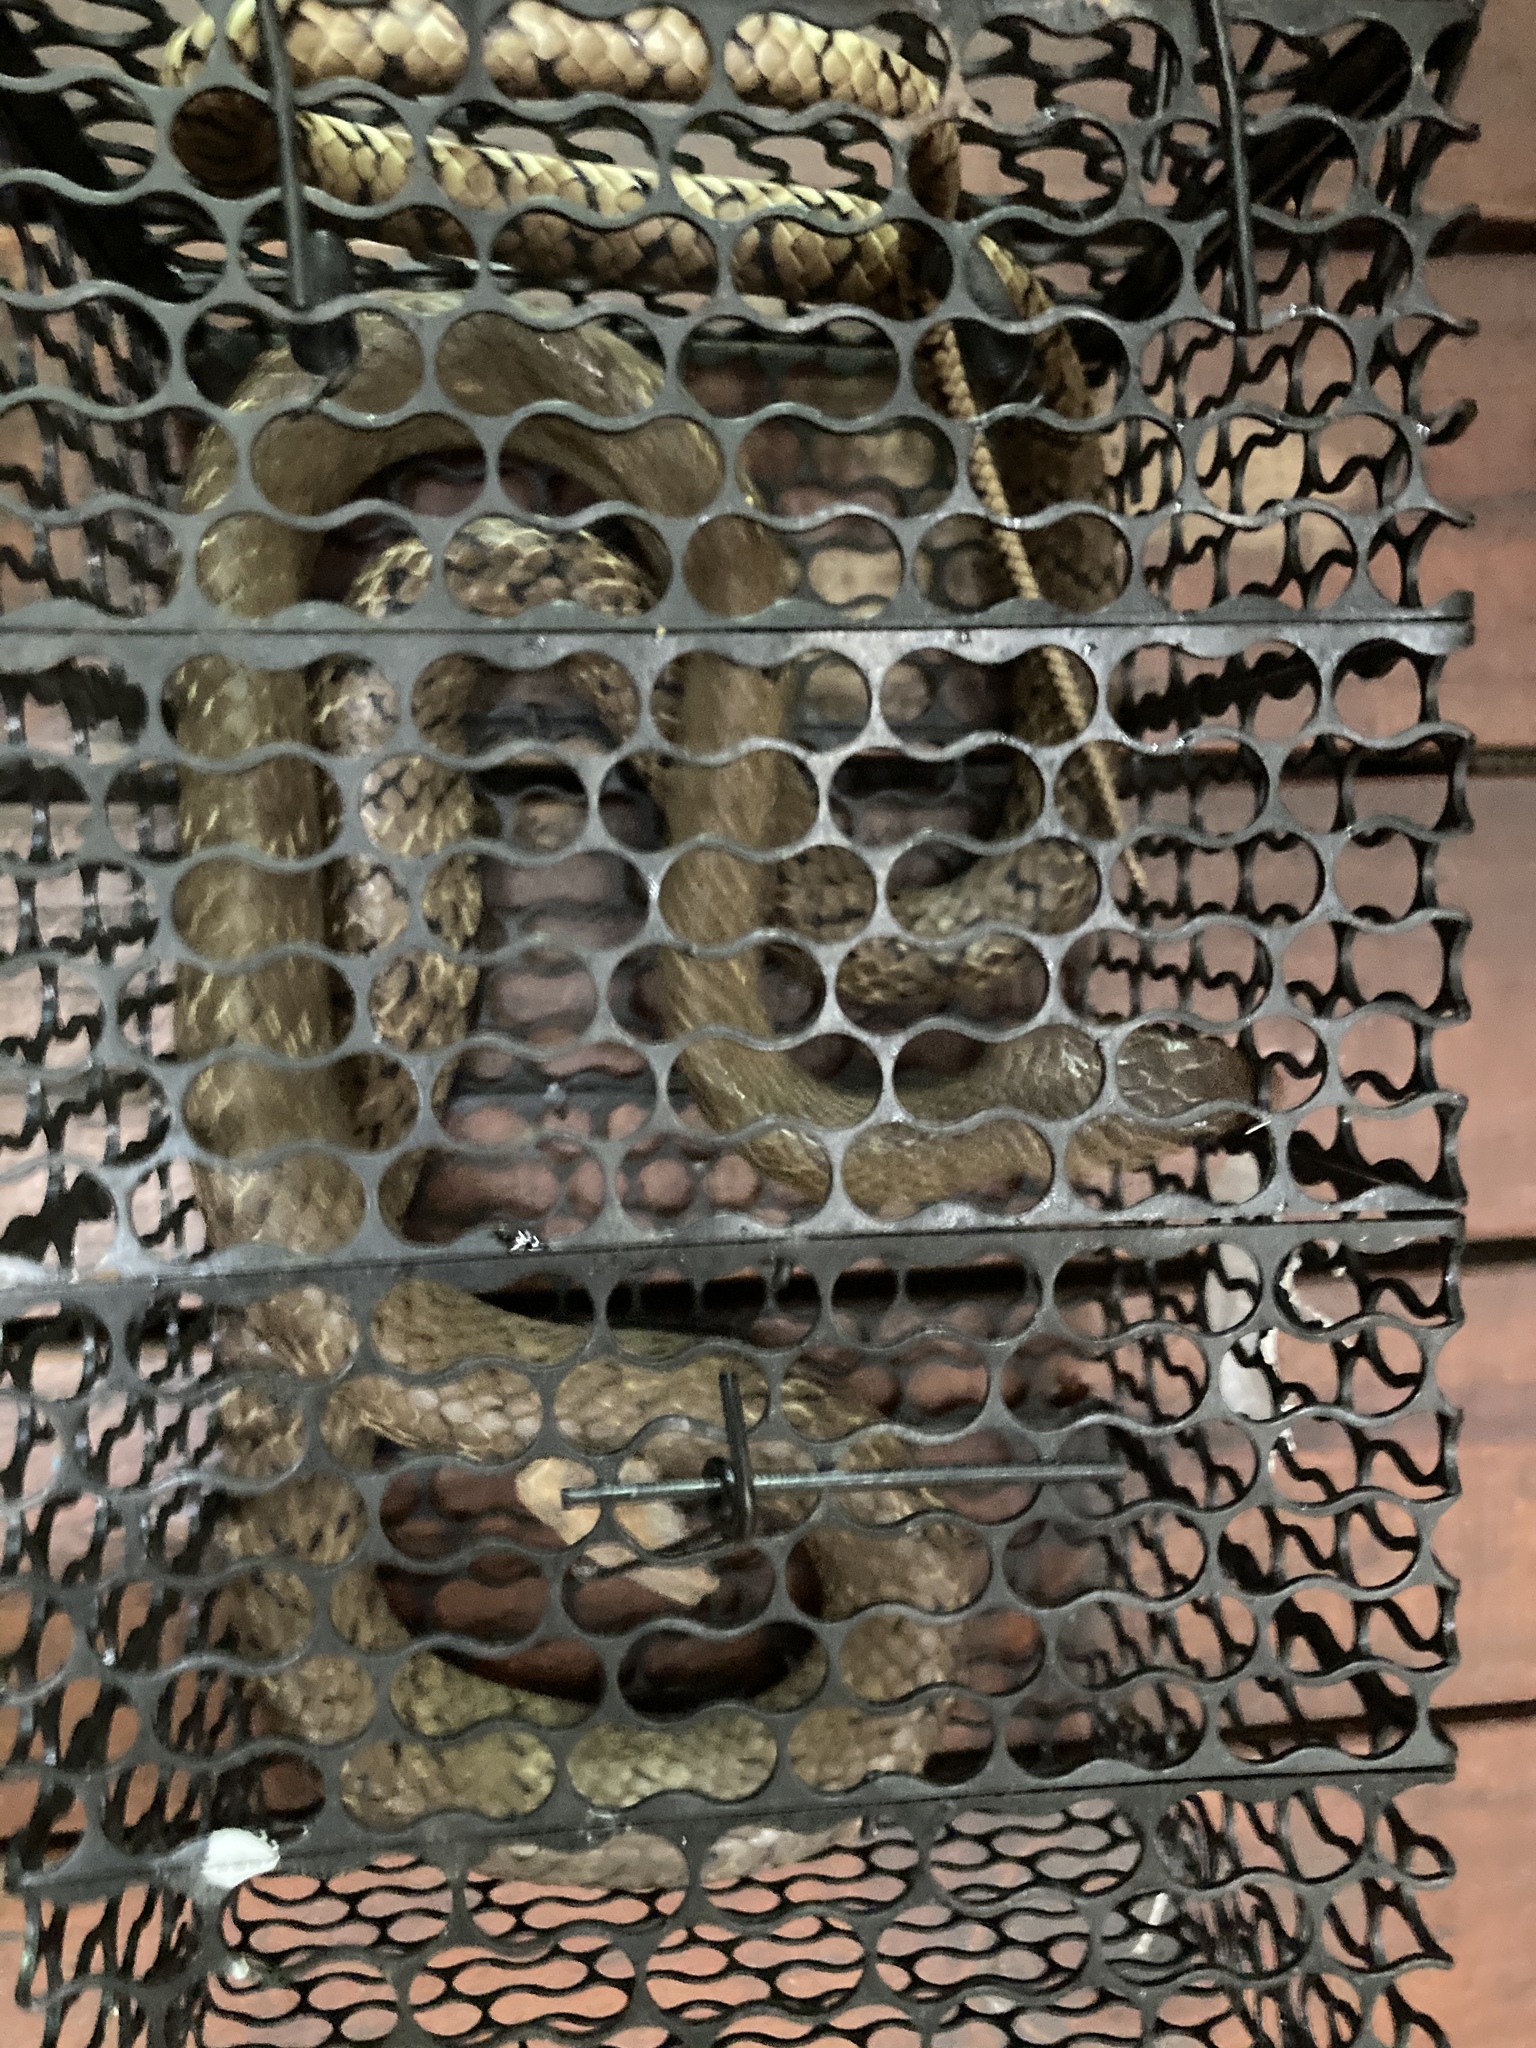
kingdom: Animalia
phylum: Chordata
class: Squamata
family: Colubridae
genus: Ptyas
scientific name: Ptyas mucosa
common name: Oriental ratsnake
